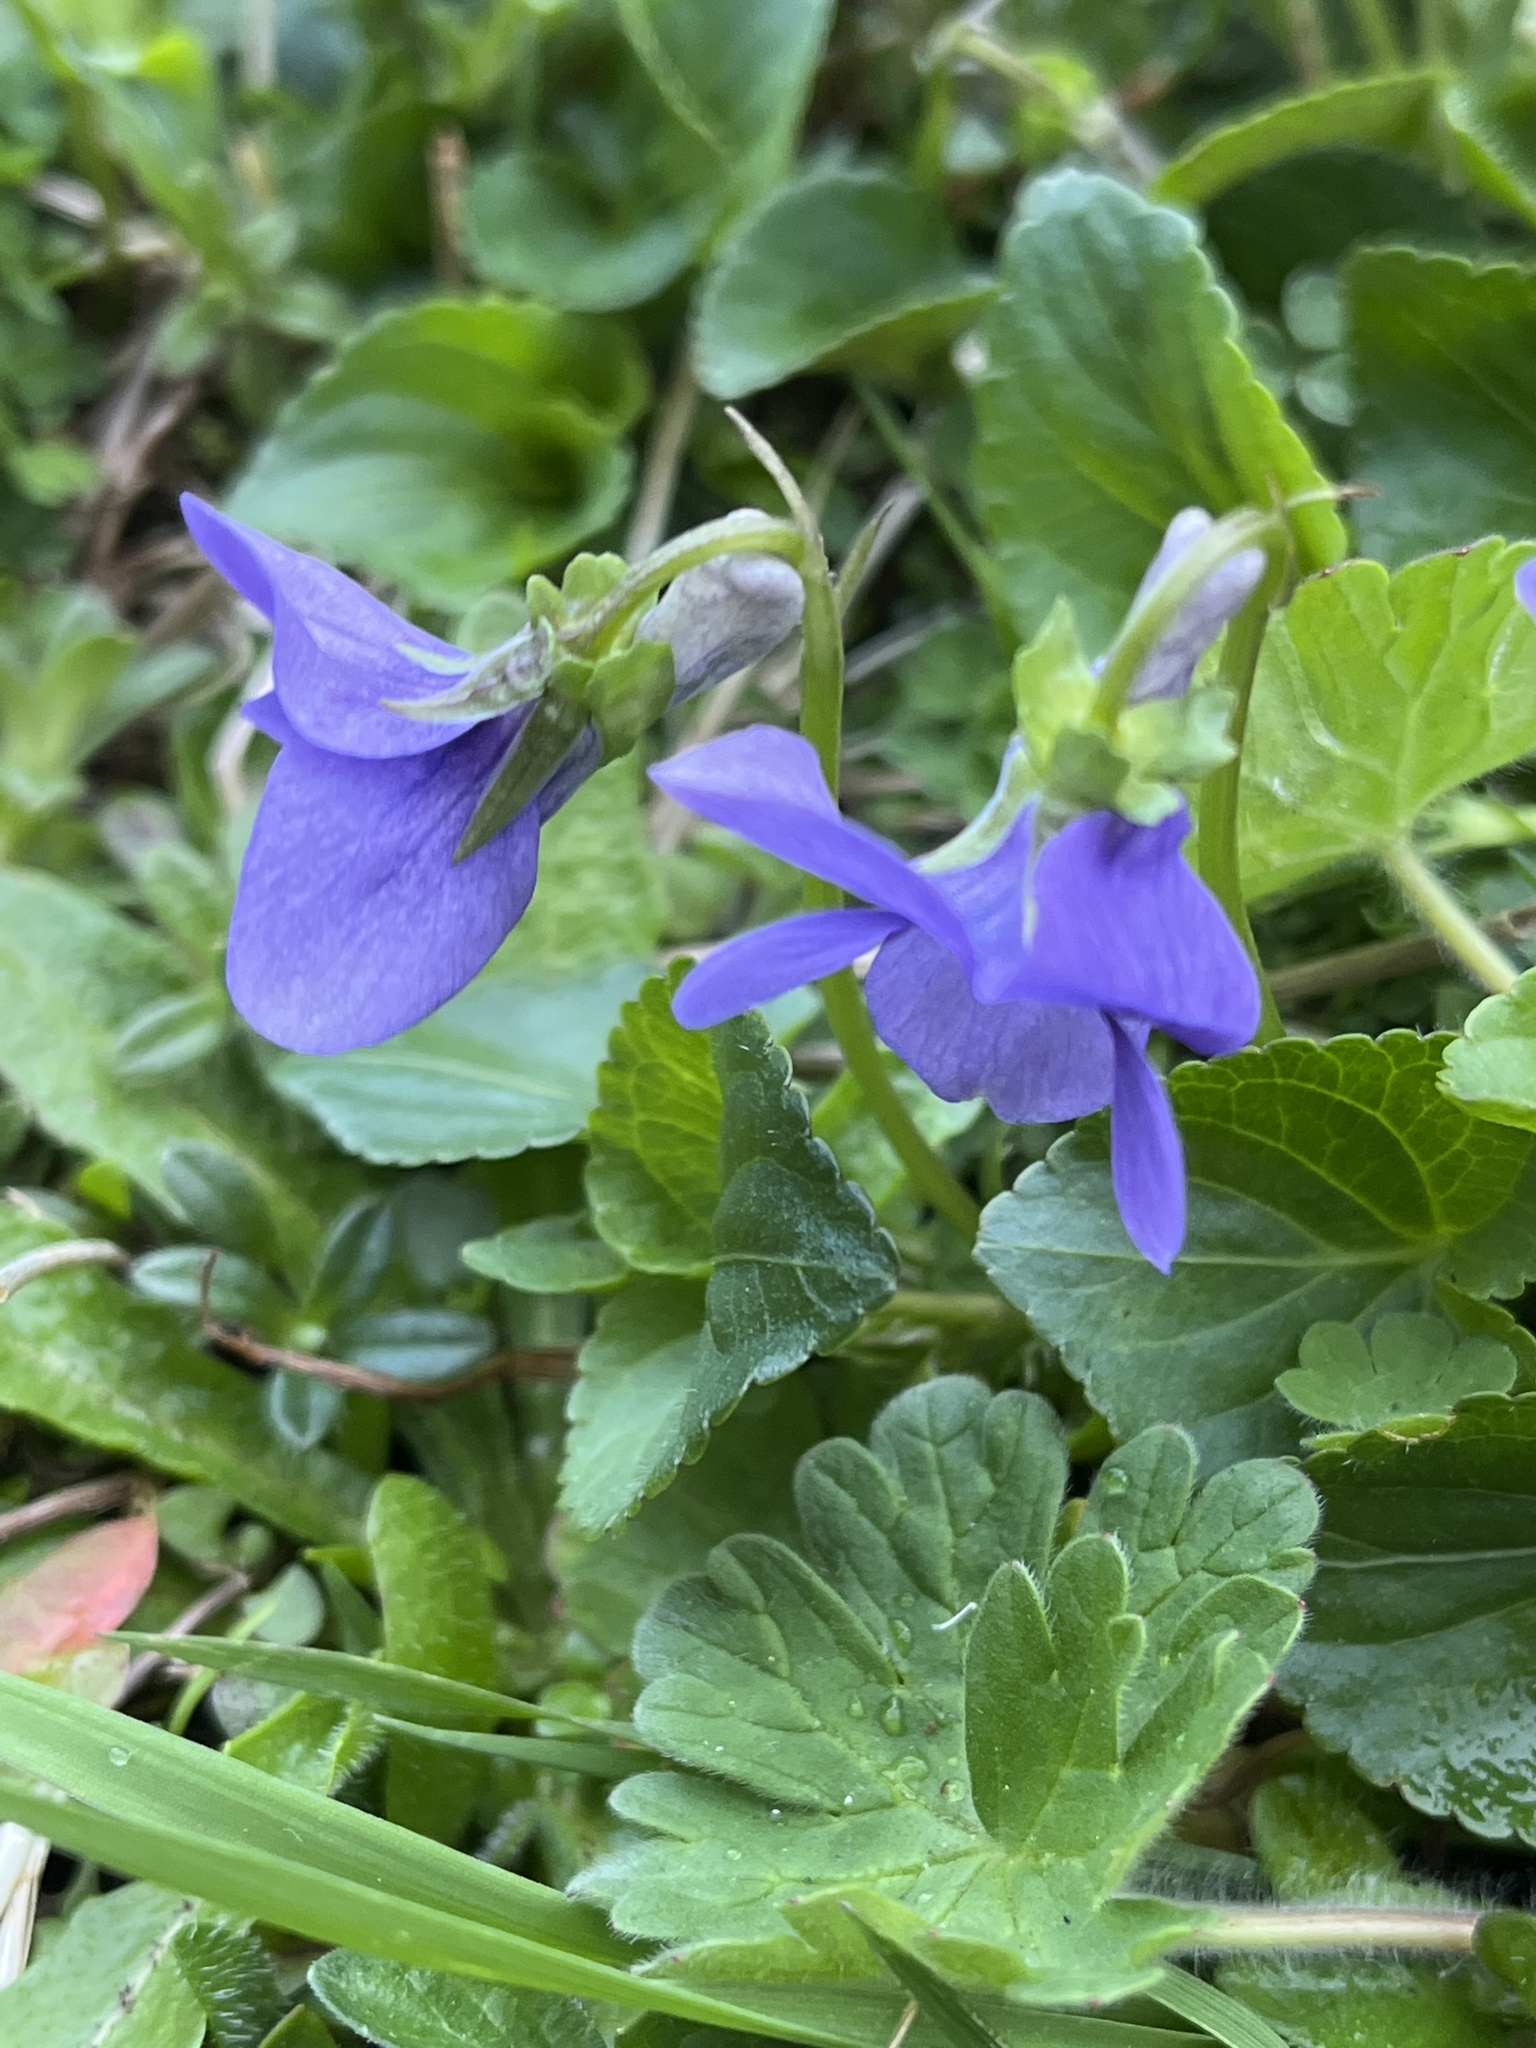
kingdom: Plantae
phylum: Tracheophyta
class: Magnoliopsida
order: Malpighiales
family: Violaceae
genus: Viola
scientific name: Viola riviniana
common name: Common dog-violet
